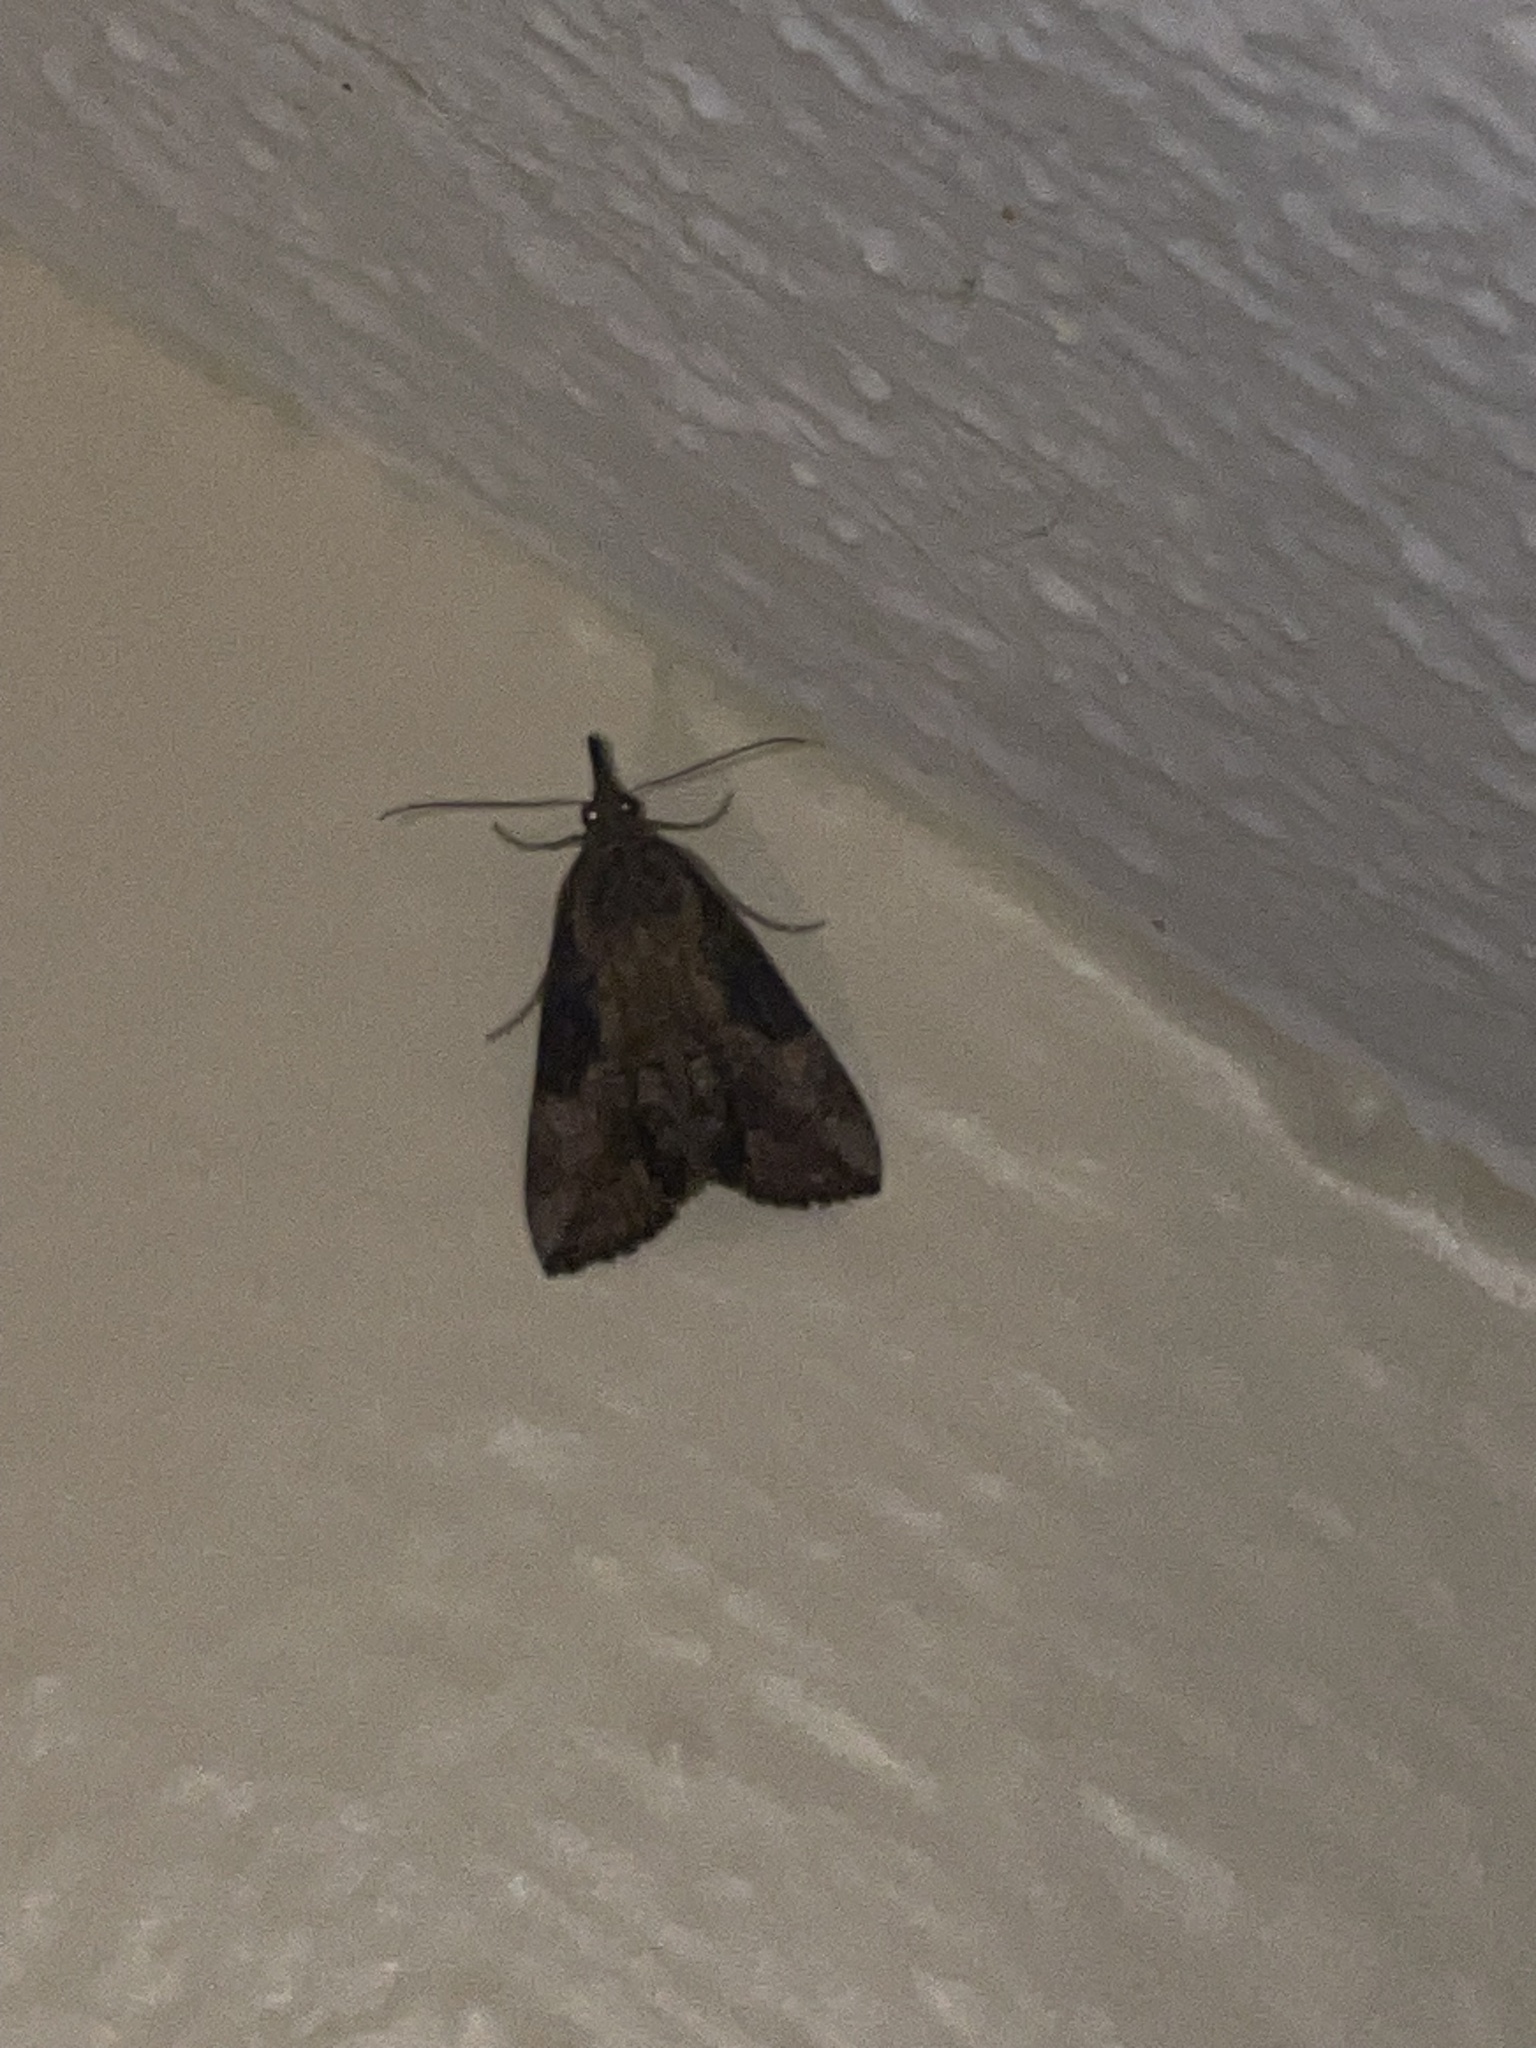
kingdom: Animalia
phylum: Arthropoda
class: Insecta
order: Lepidoptera
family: Erebidae
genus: Hypena
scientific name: Hypena scabra
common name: Green cloverworm
